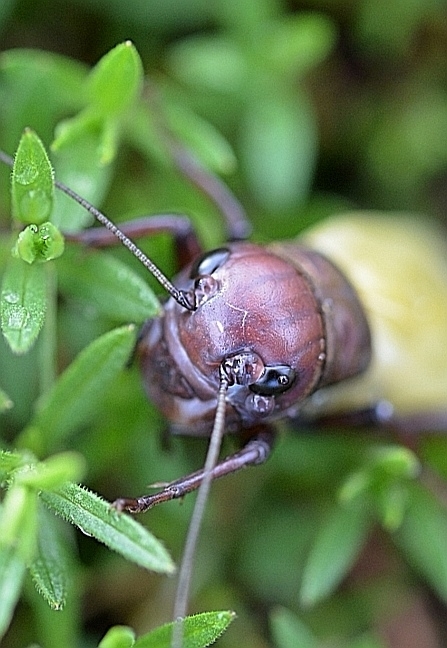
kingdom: Animalia
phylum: Arthropoda
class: Insecta
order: Orthoptera
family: Gryllidae
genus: Gryllus
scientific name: Gryllus campestris
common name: Field cricket
